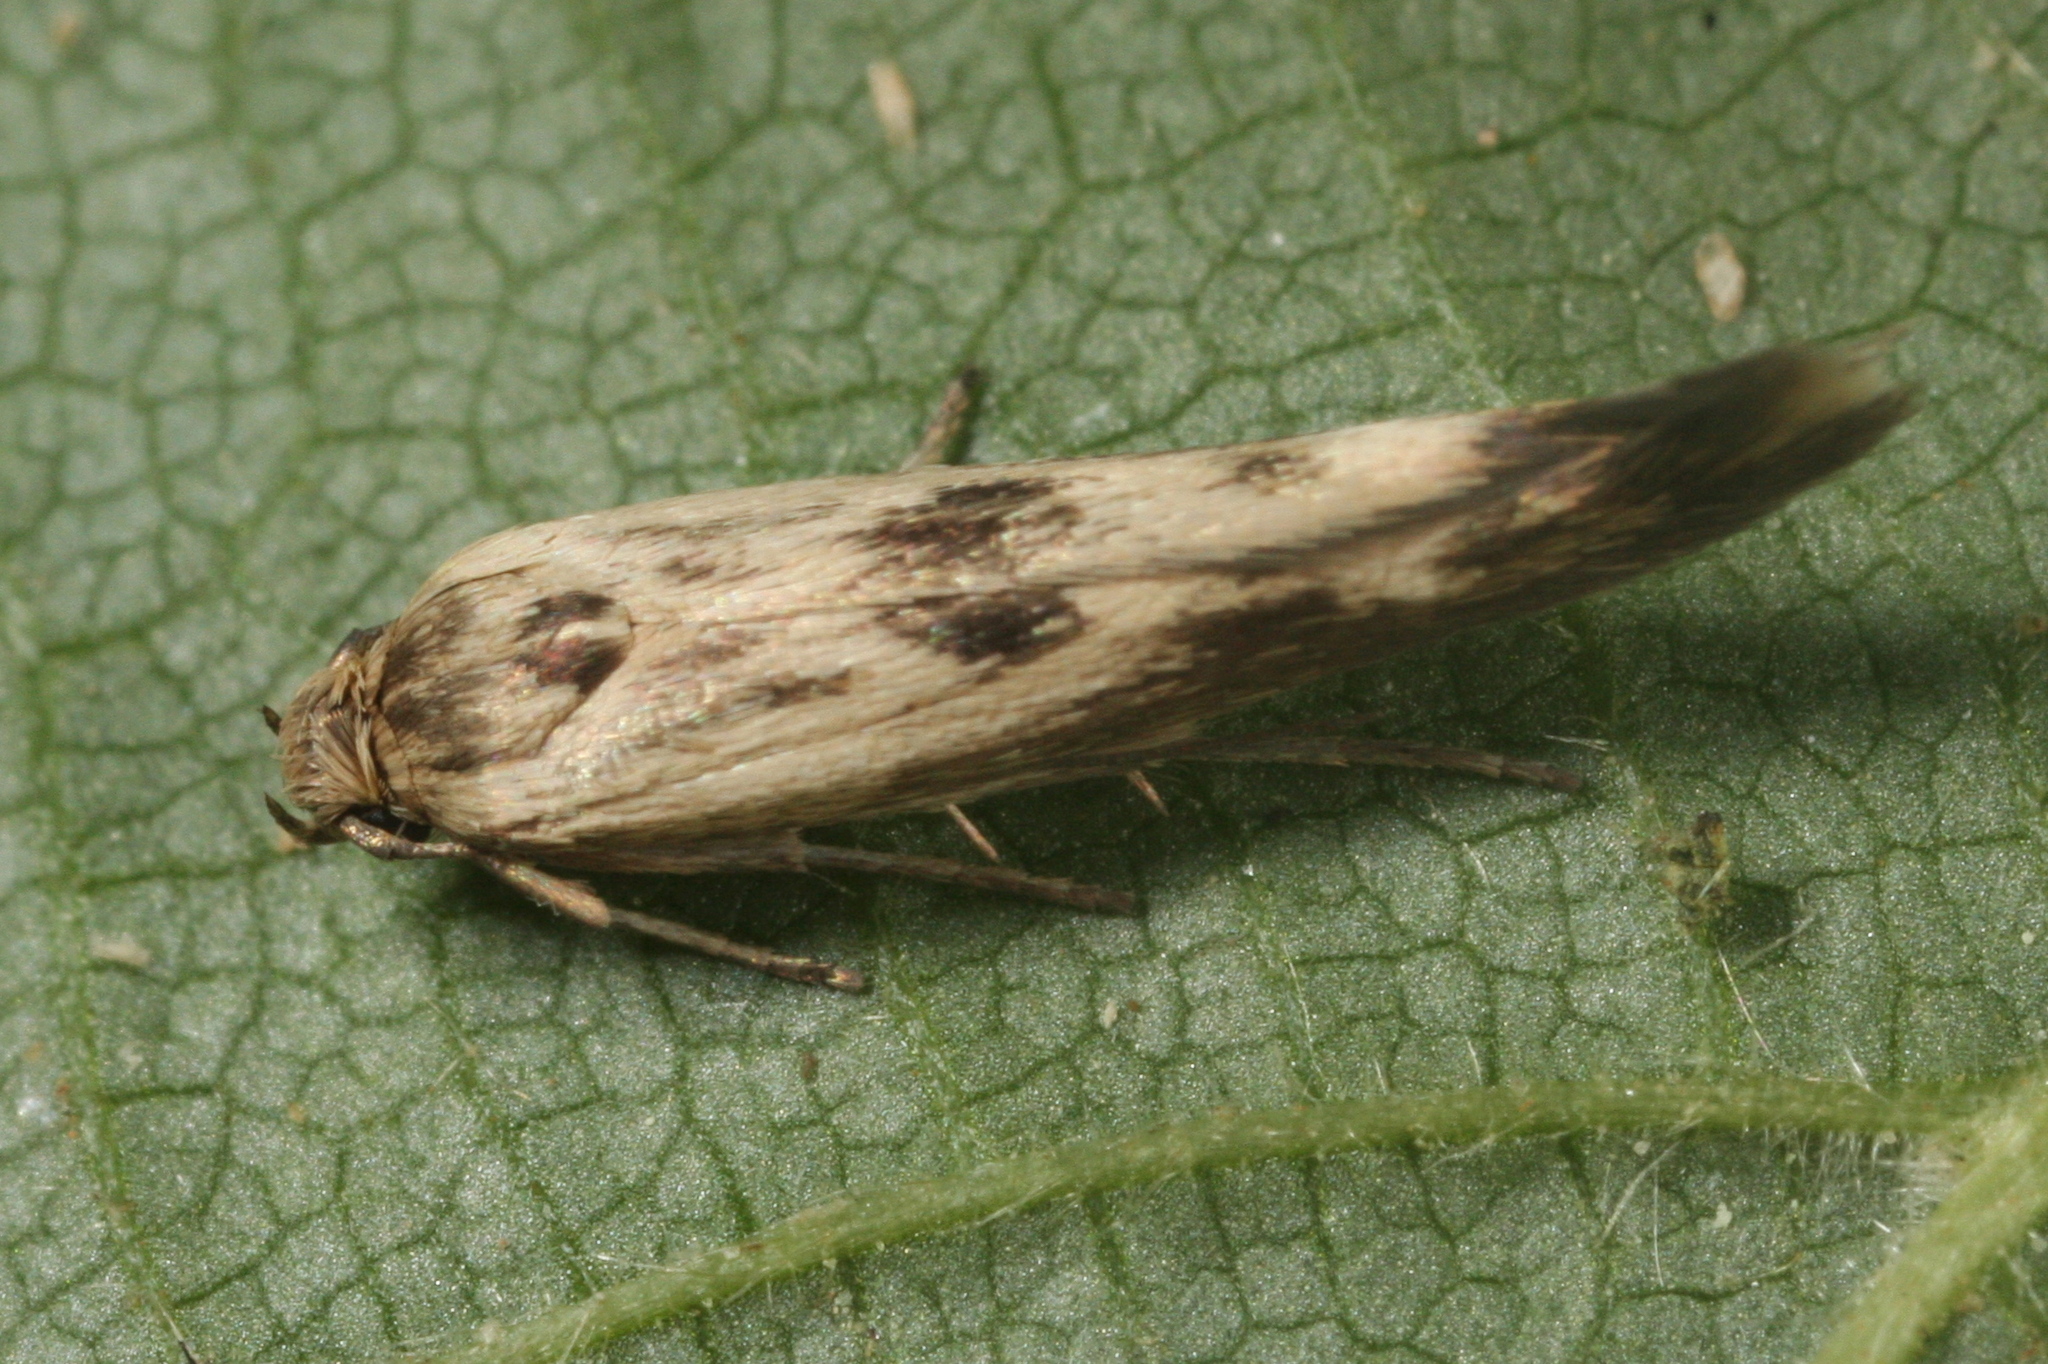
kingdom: Animalia
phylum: Arthropoda
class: Insecta
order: Lepidoptera
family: Scythrididae
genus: Scythris
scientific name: Scythris limbella
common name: Goosefoot owlet
